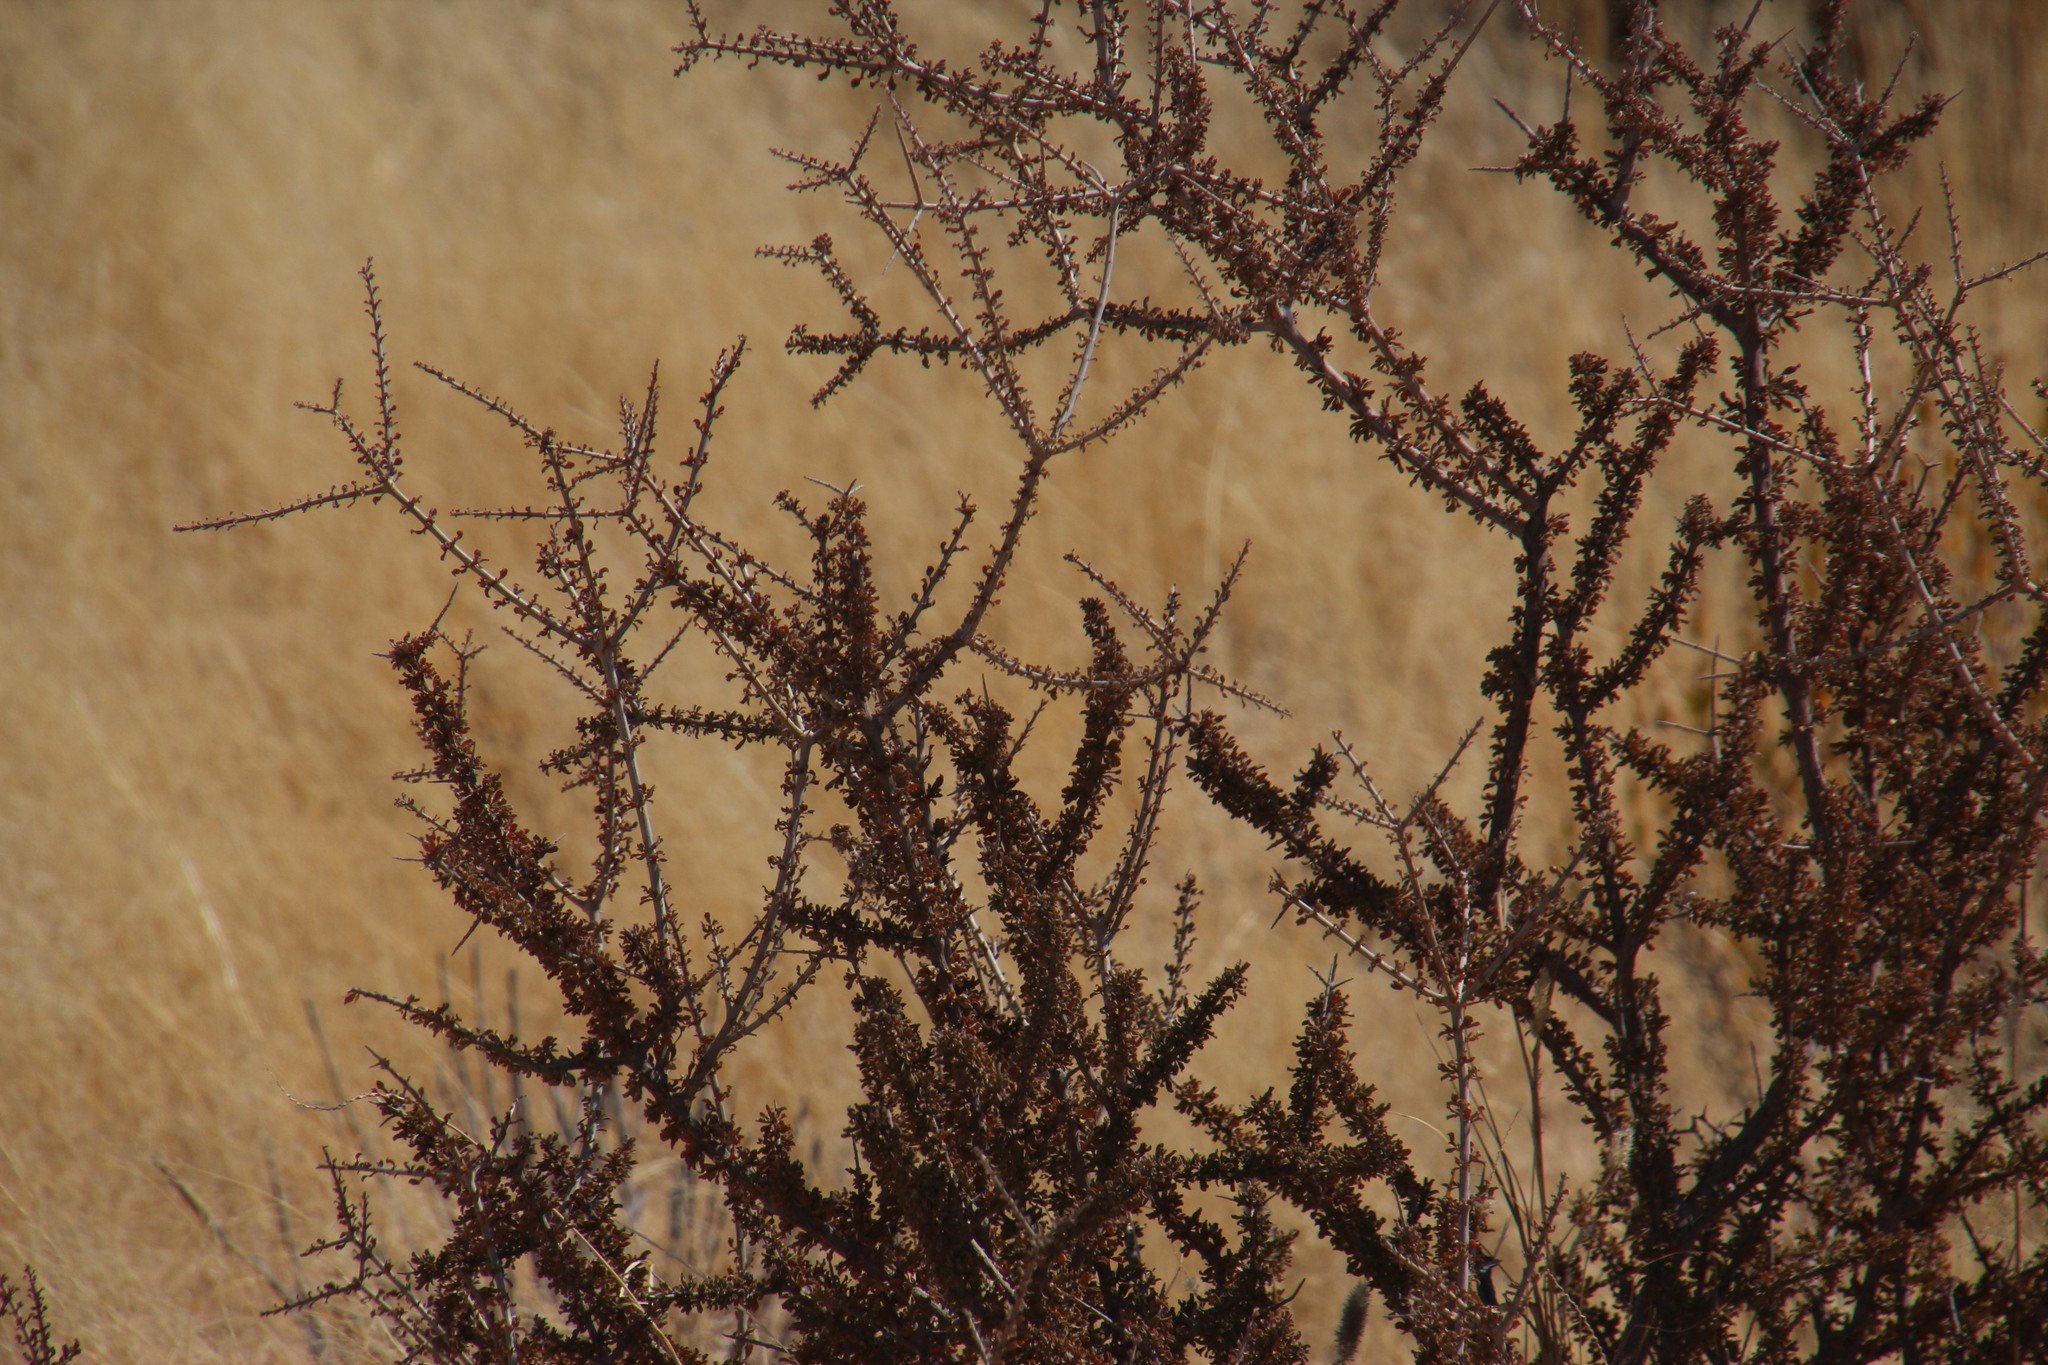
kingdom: Plantae
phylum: Tracheophyta
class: Magnoliopsida
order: Lamiales
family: Bignoniaceae
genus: Rhigozum
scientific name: Rhigozum trichotomum
